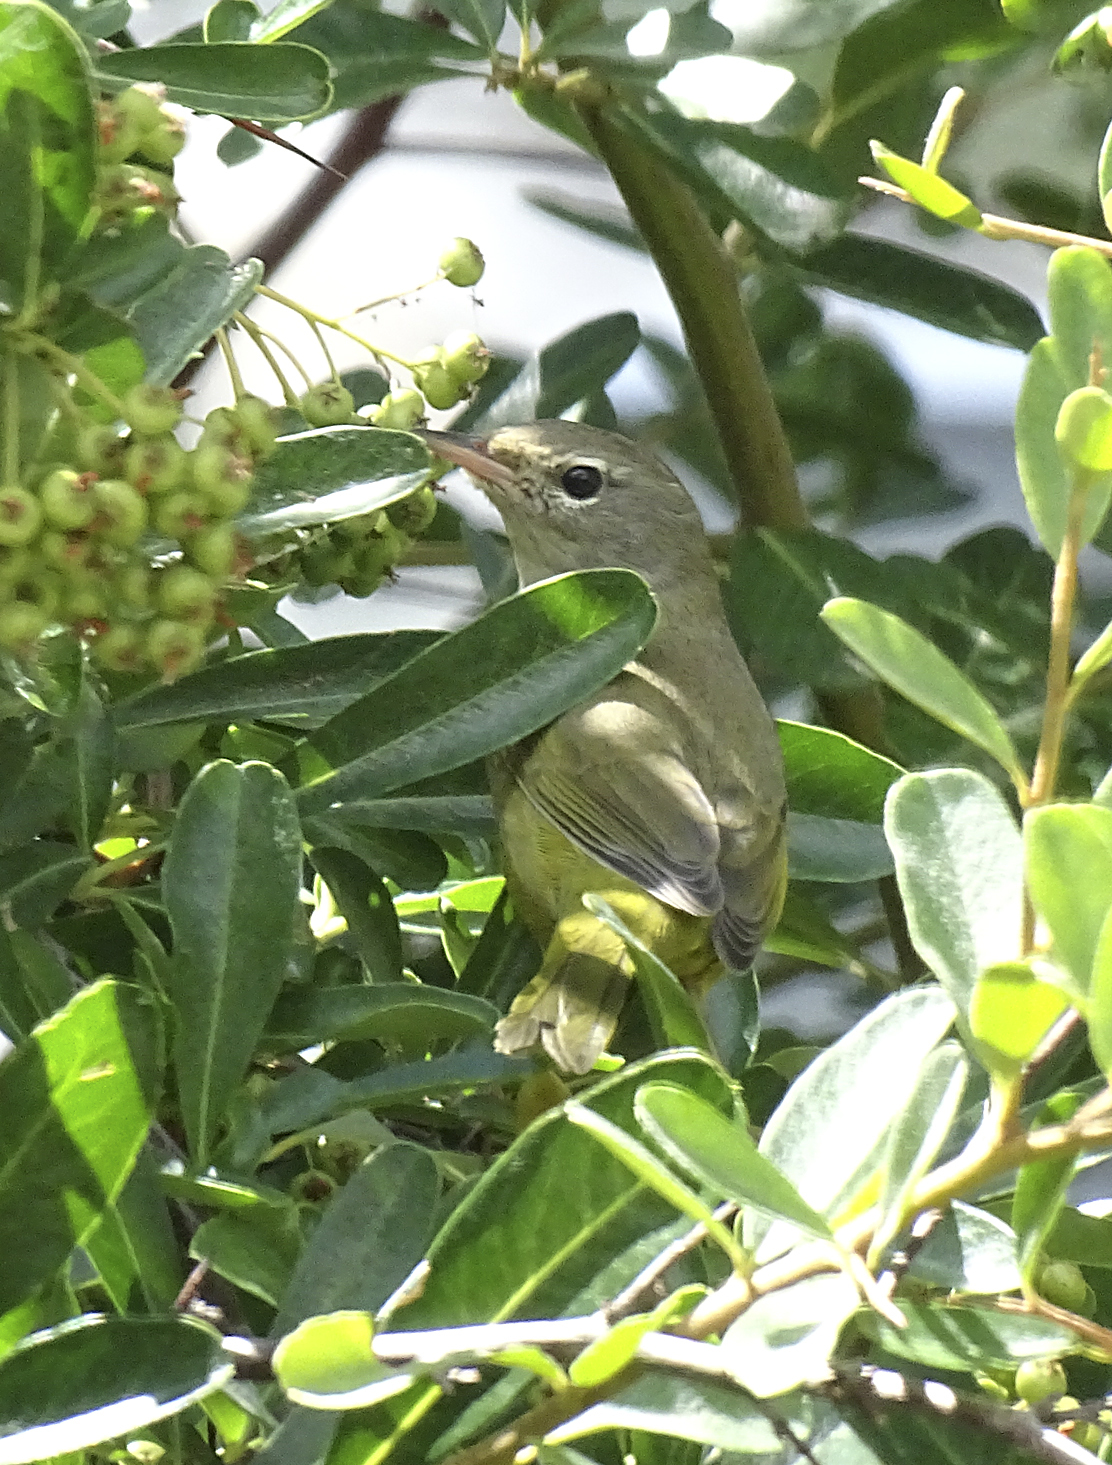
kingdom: Animalia
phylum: Chordata
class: Aves
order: Passeriformes
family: Parulidae
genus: Geothlypis
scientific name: Geothlypis tolmiei
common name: Macgillivray's warbler
